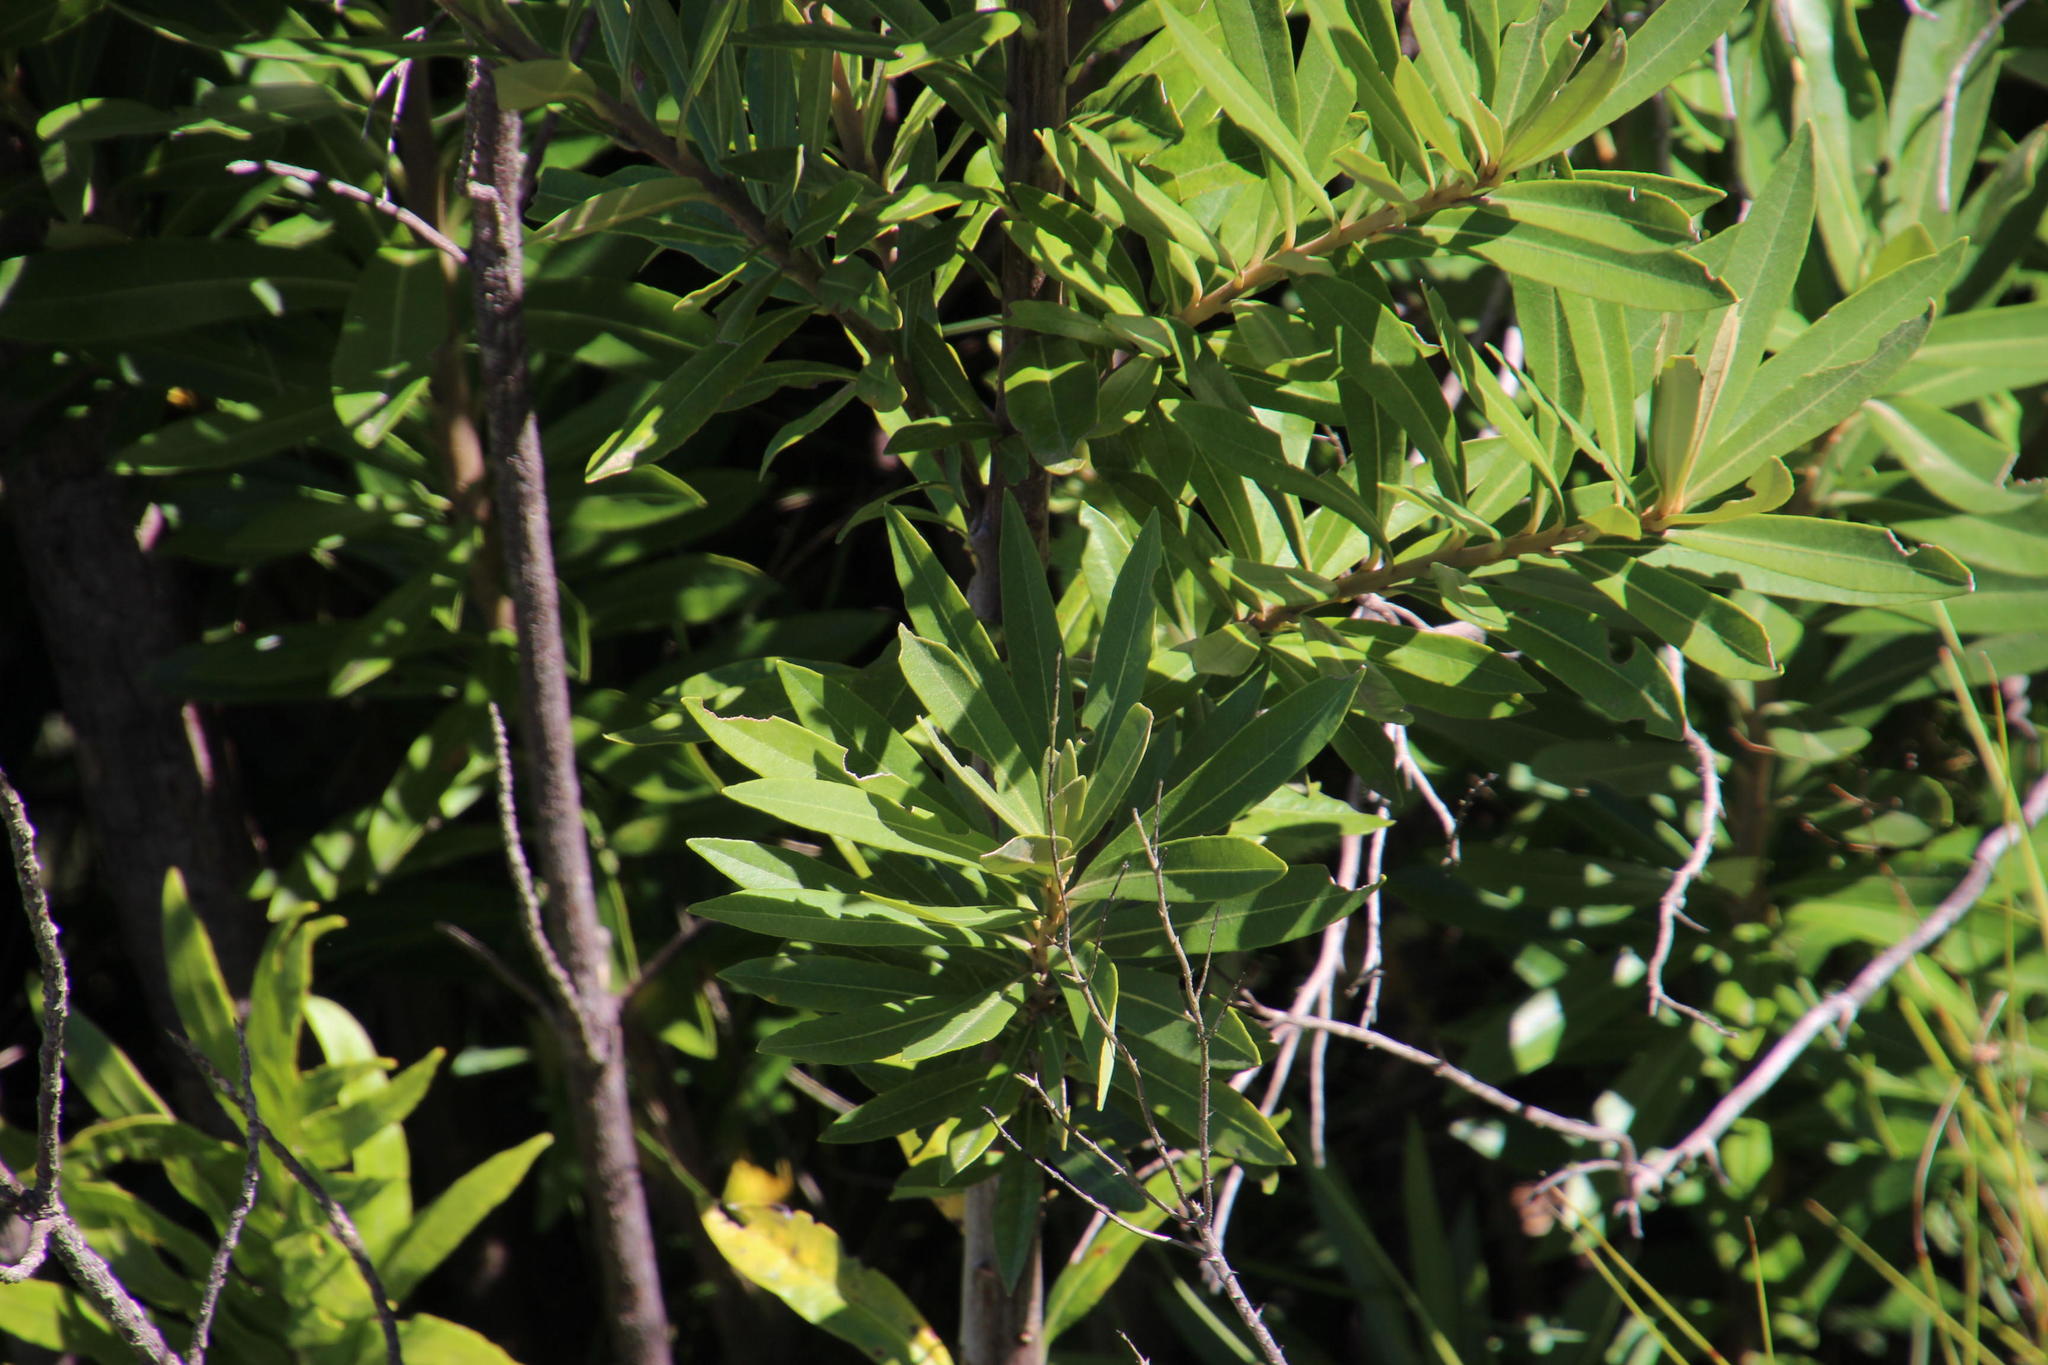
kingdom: Plantae
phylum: Tracheophyta
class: Magnoliopsida
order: Asterales
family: Asteraceae
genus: Brachylaena
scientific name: Brachylaena neriifolia
